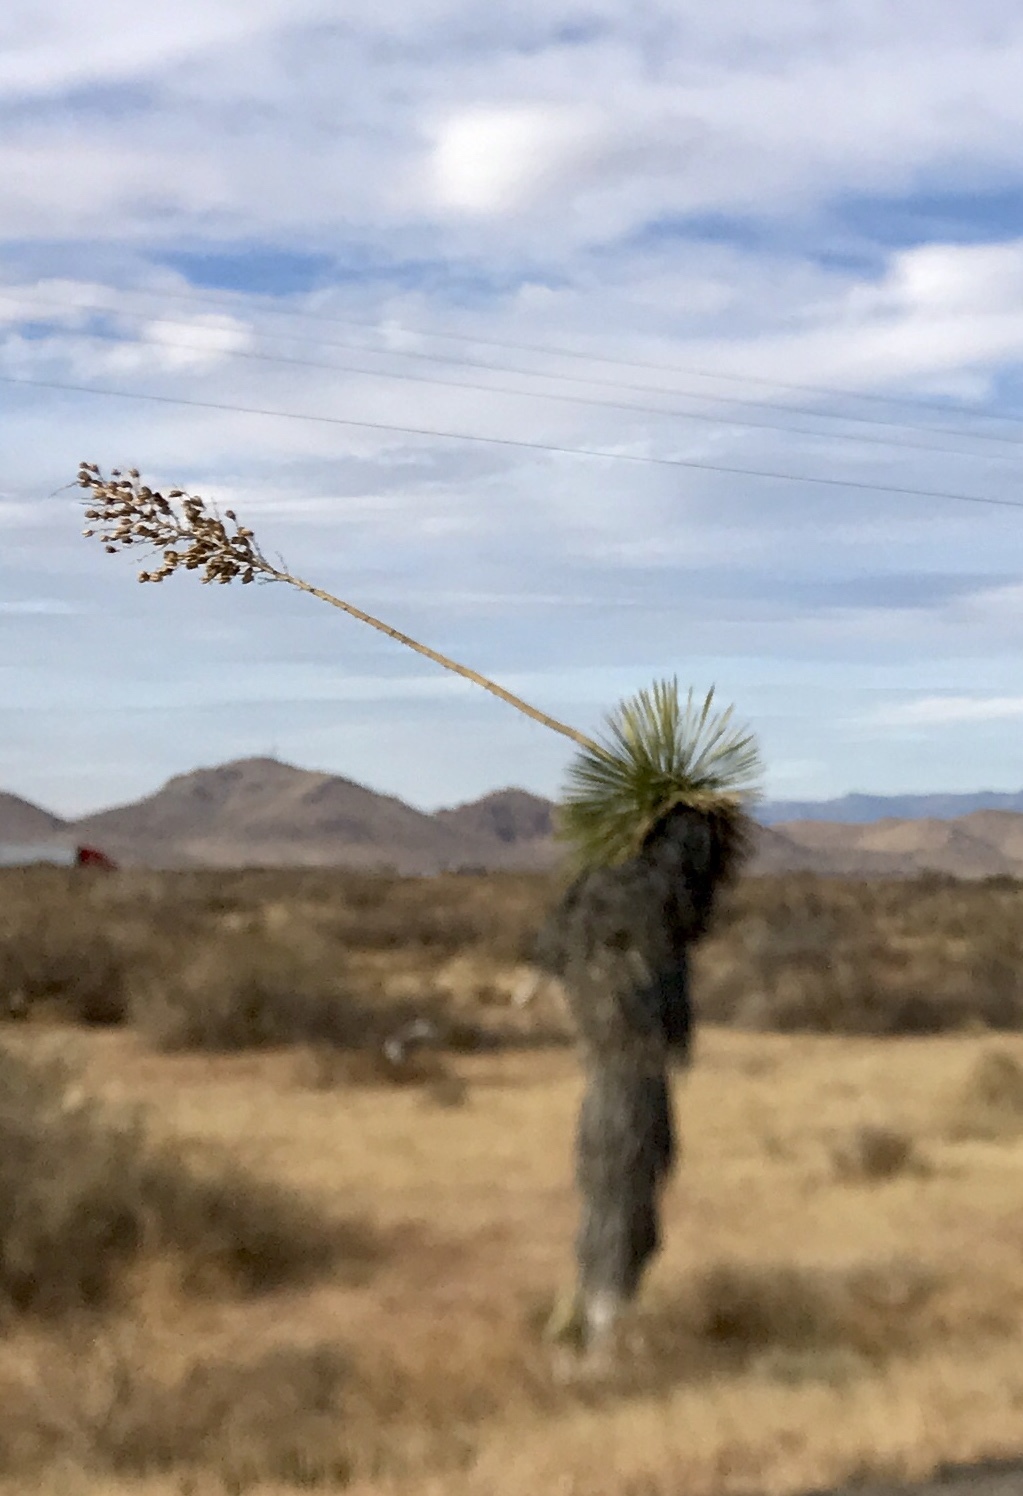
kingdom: Plantae
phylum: Tracheophyta
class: Liliopsida
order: Asparagales
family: Asparagaceae
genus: Yucca
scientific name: Yucca elata
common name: Palmella
